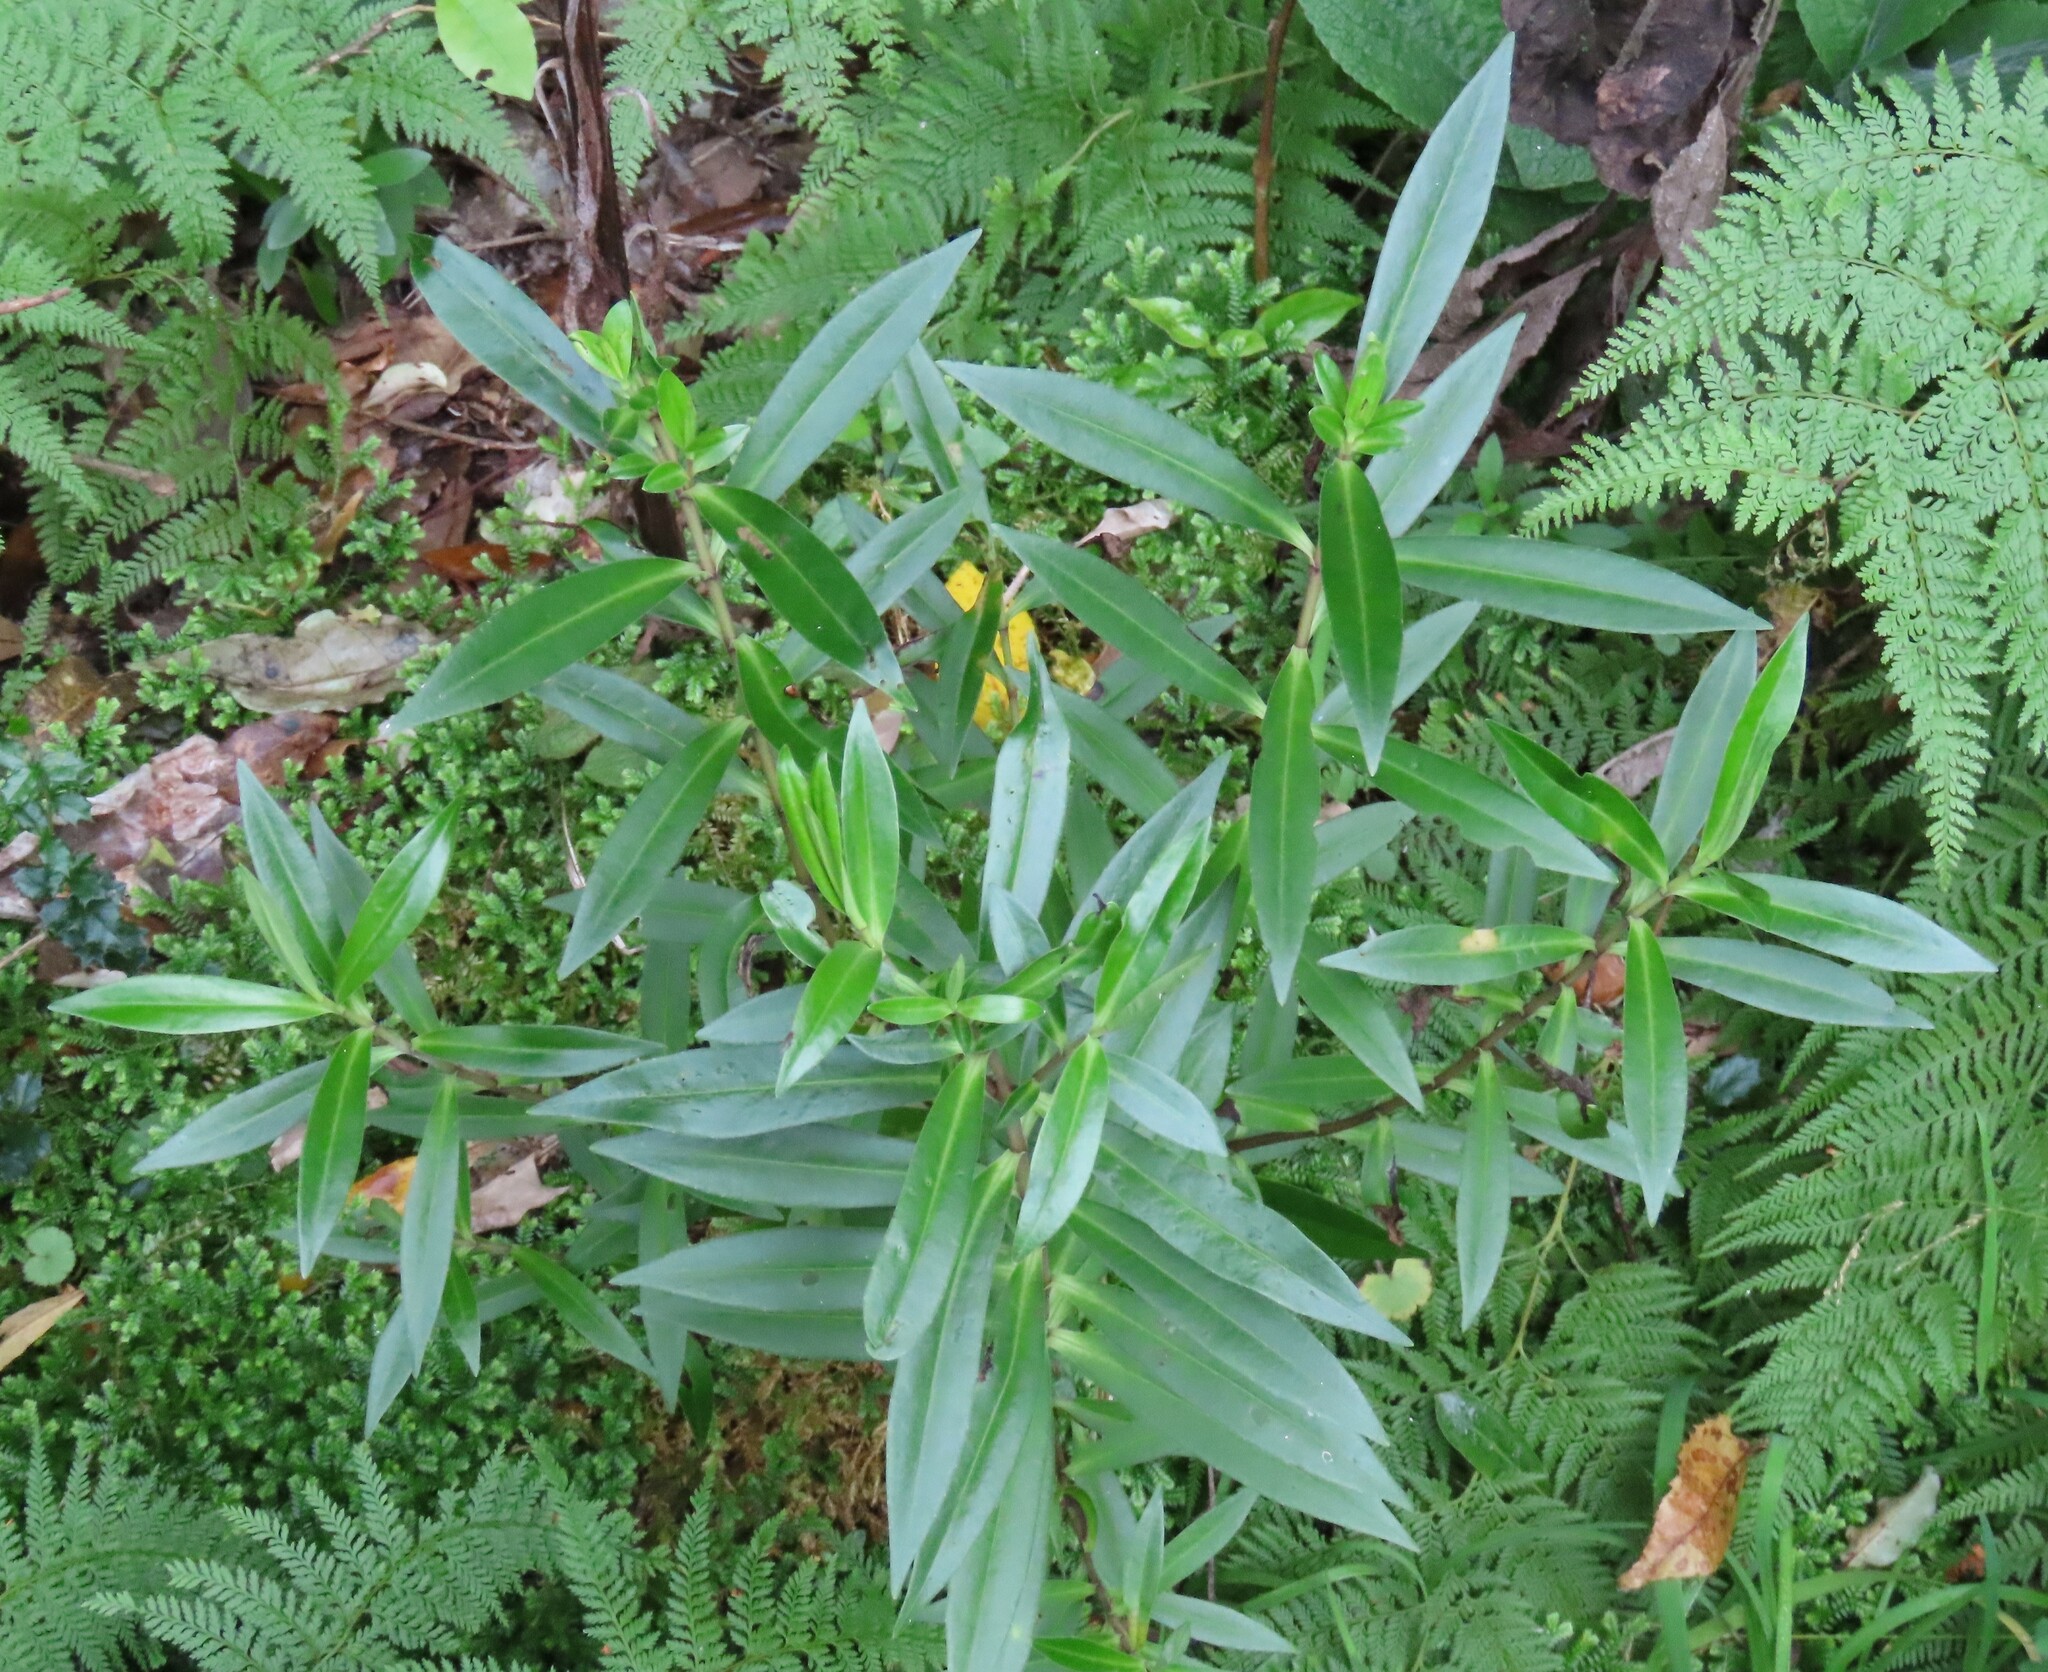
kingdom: Plantae
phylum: Tracheophyta
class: Magnoliopsida
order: Lamiales
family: Plantaginaceae
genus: Veronica
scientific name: Veronica stricta
